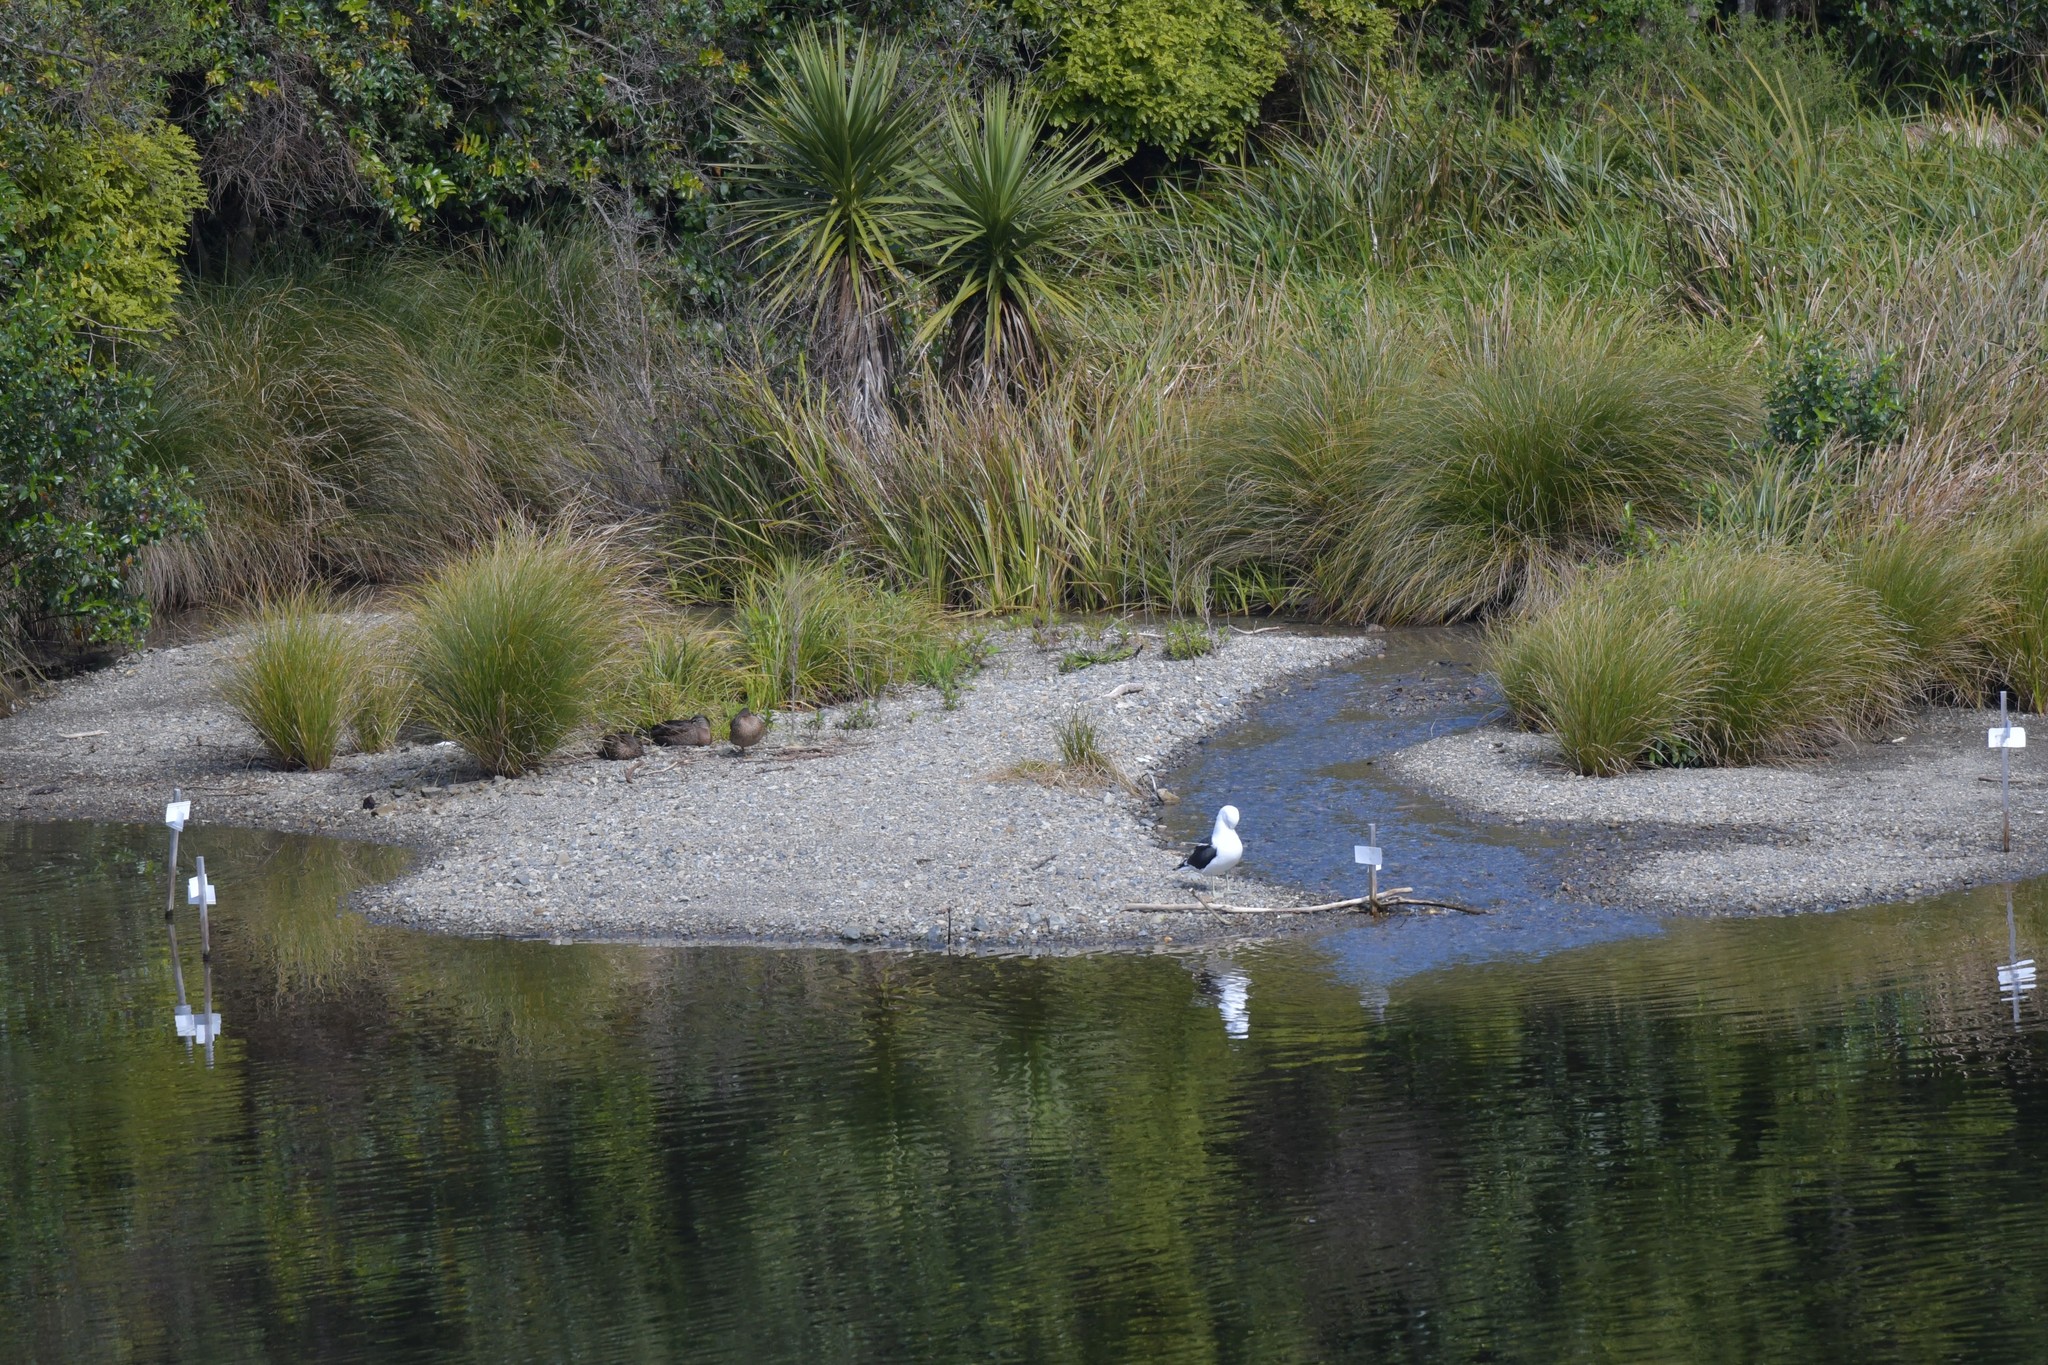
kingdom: Animalia
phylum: Chordata
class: Aves
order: Charadriiformes
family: Laridae
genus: Larus
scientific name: Larus dominicanus
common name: Kelp gull
